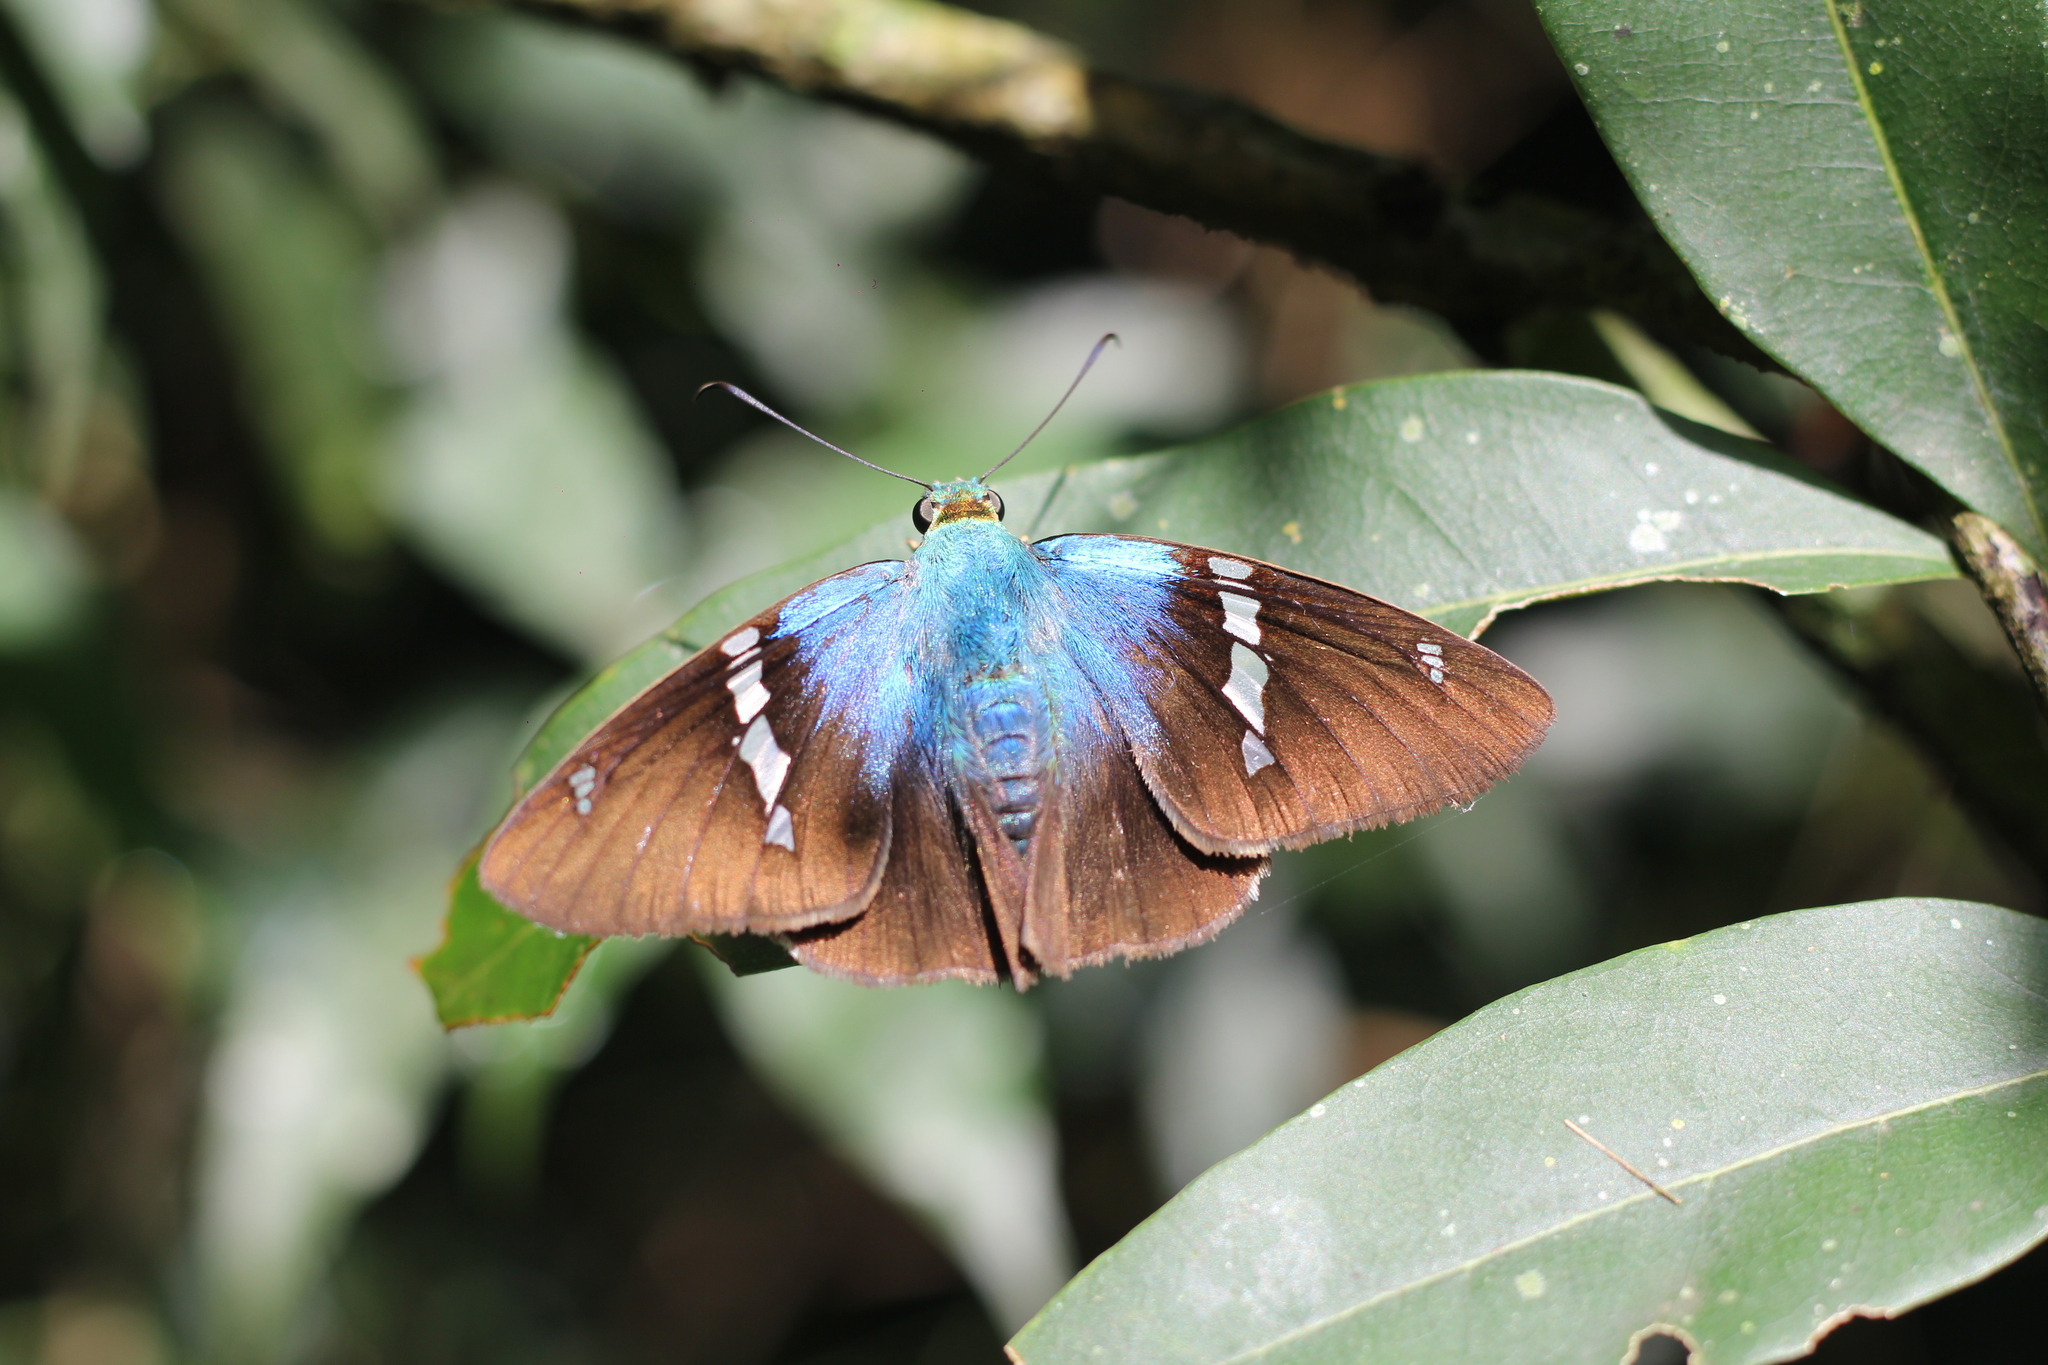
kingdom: Animalia
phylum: Arthropoda
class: Insecta
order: Lepidoptera
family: Hesperiidae
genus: Astraptes
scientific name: Astraptes fulgerator
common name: Two-barred flasher
